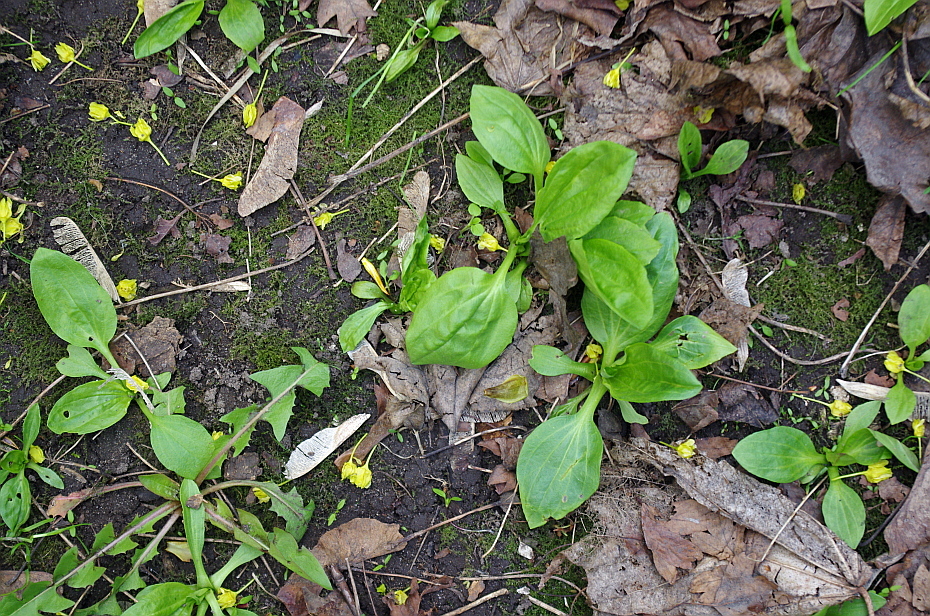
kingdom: Plantae
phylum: Tracheophyta
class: Magnoliopsida
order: Lamiales
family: Plantaginaceae
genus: Plantago
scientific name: Plantago major
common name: Common plantain
